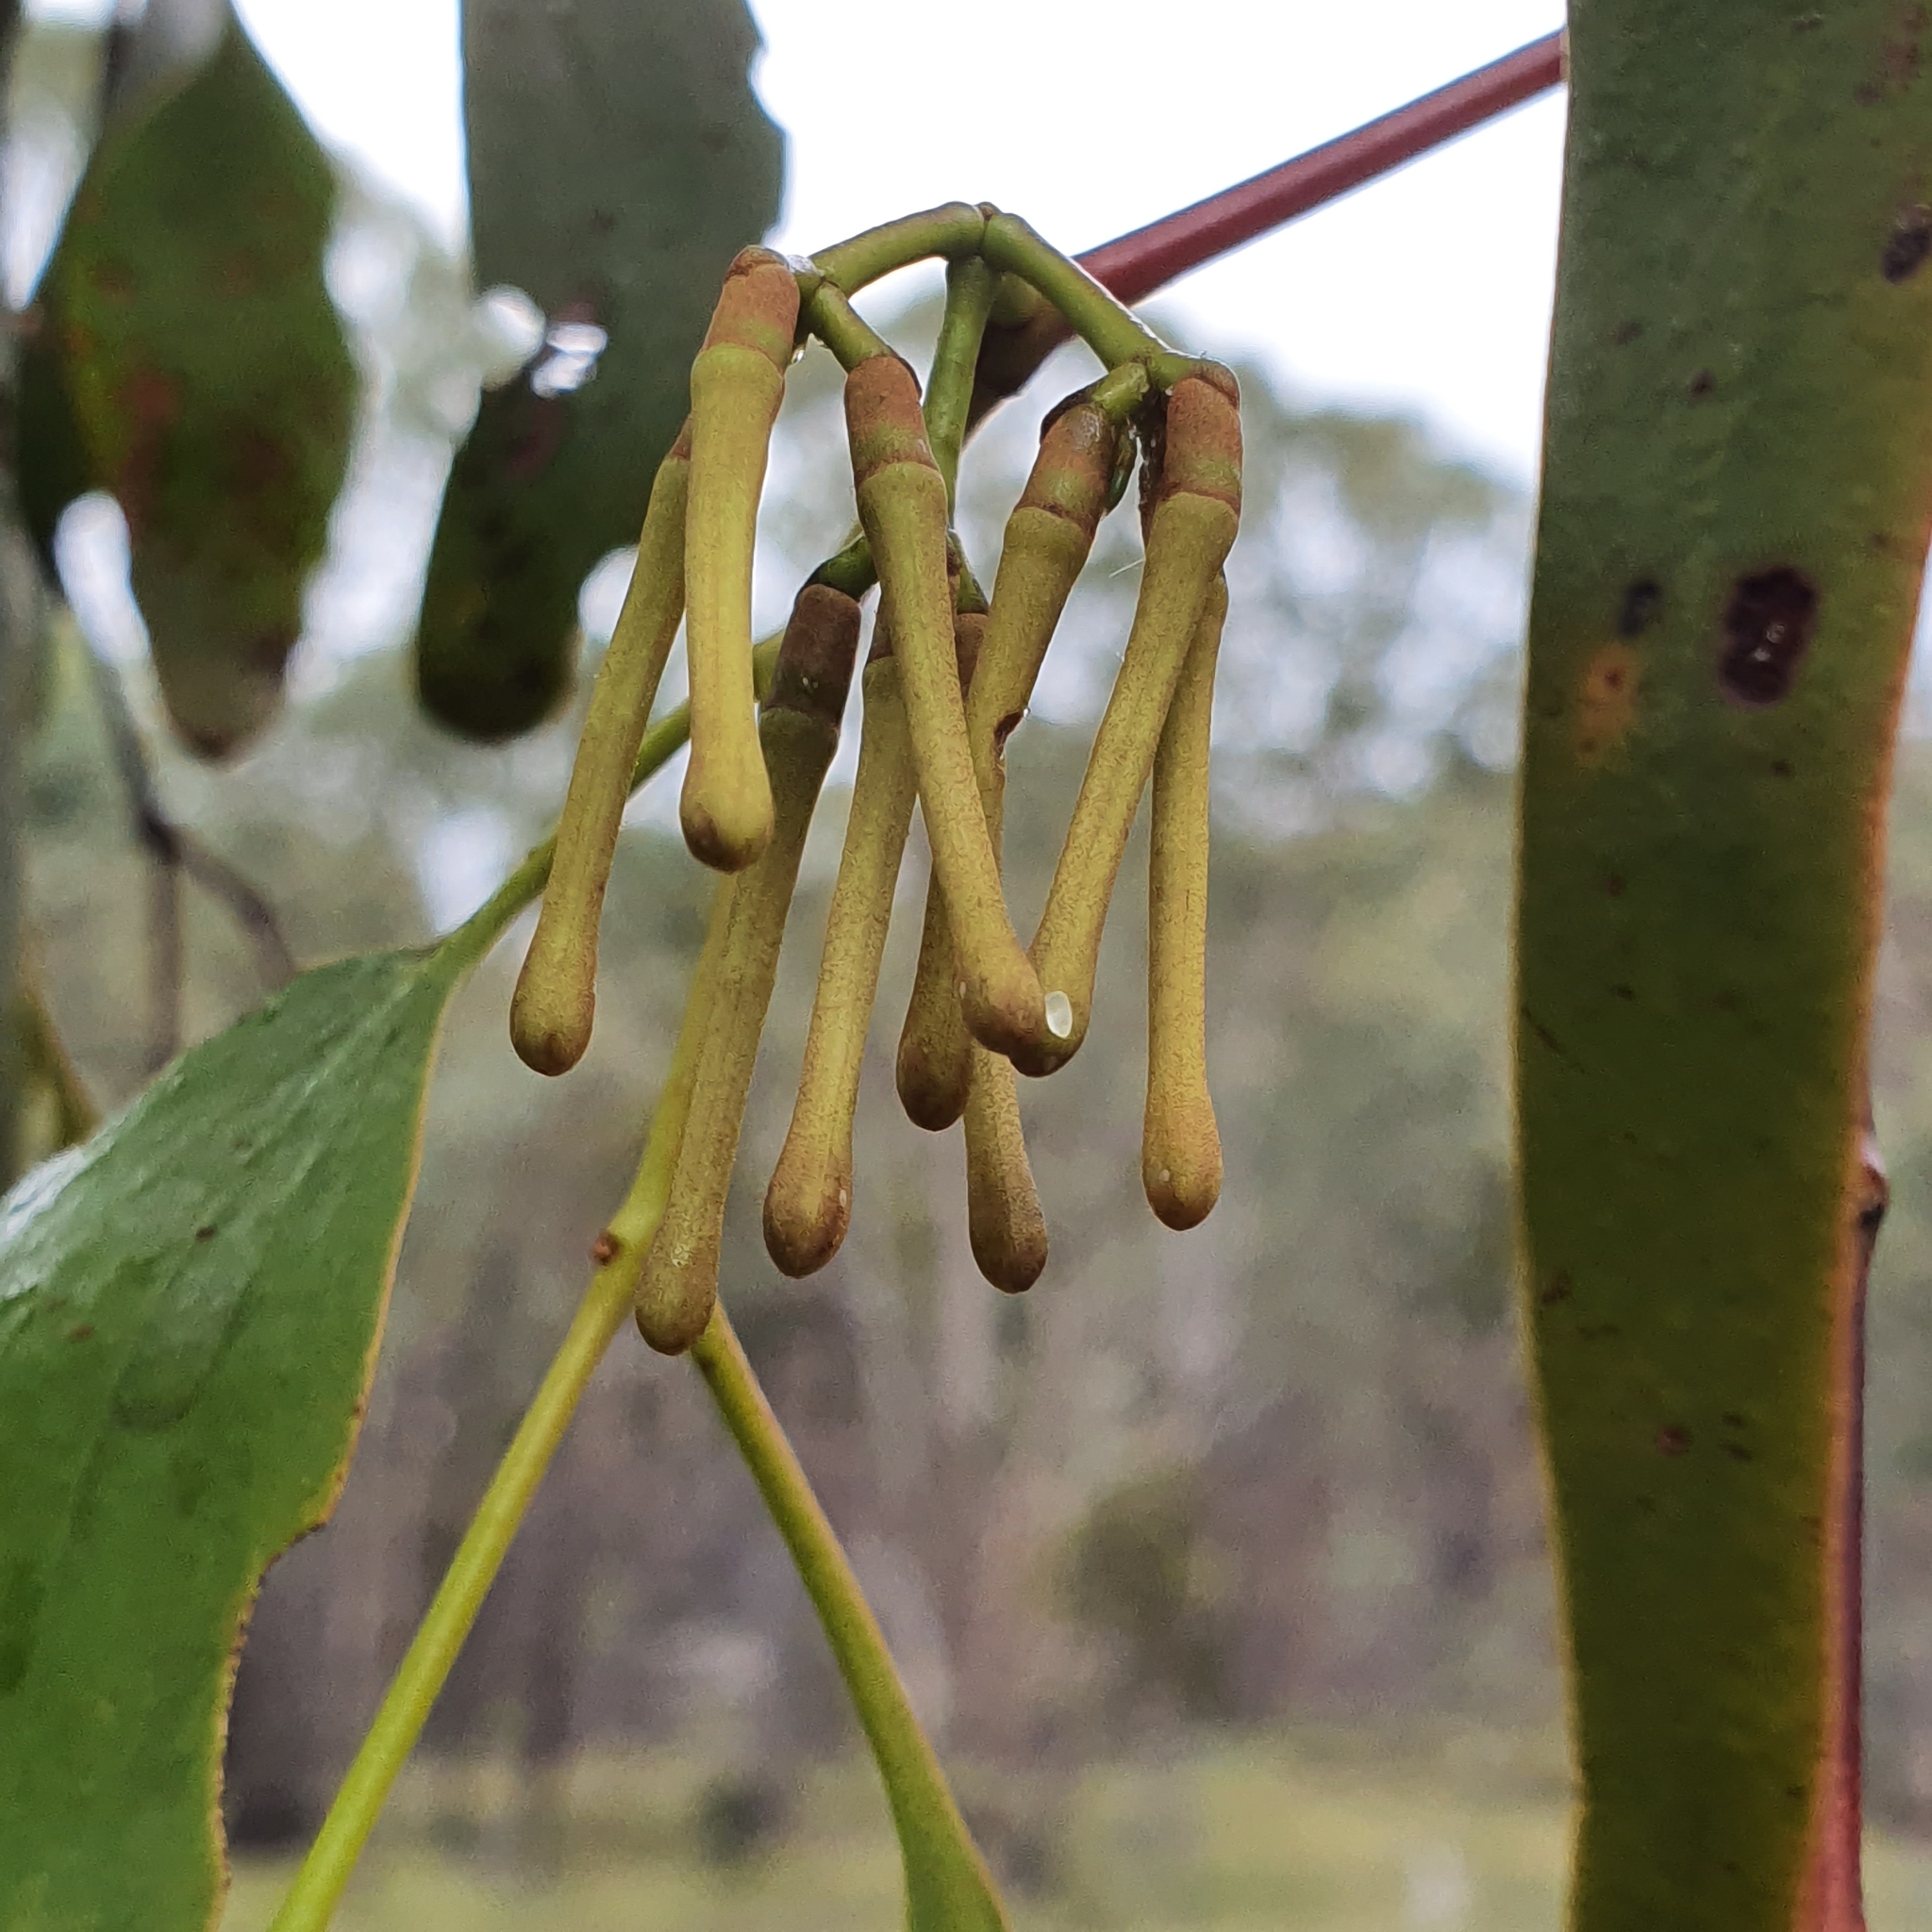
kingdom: Plantae
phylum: Tracheophyta
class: Magnoliopsida
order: Santalales
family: Loranthaceae
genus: Amyema
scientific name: Amyema pendula
